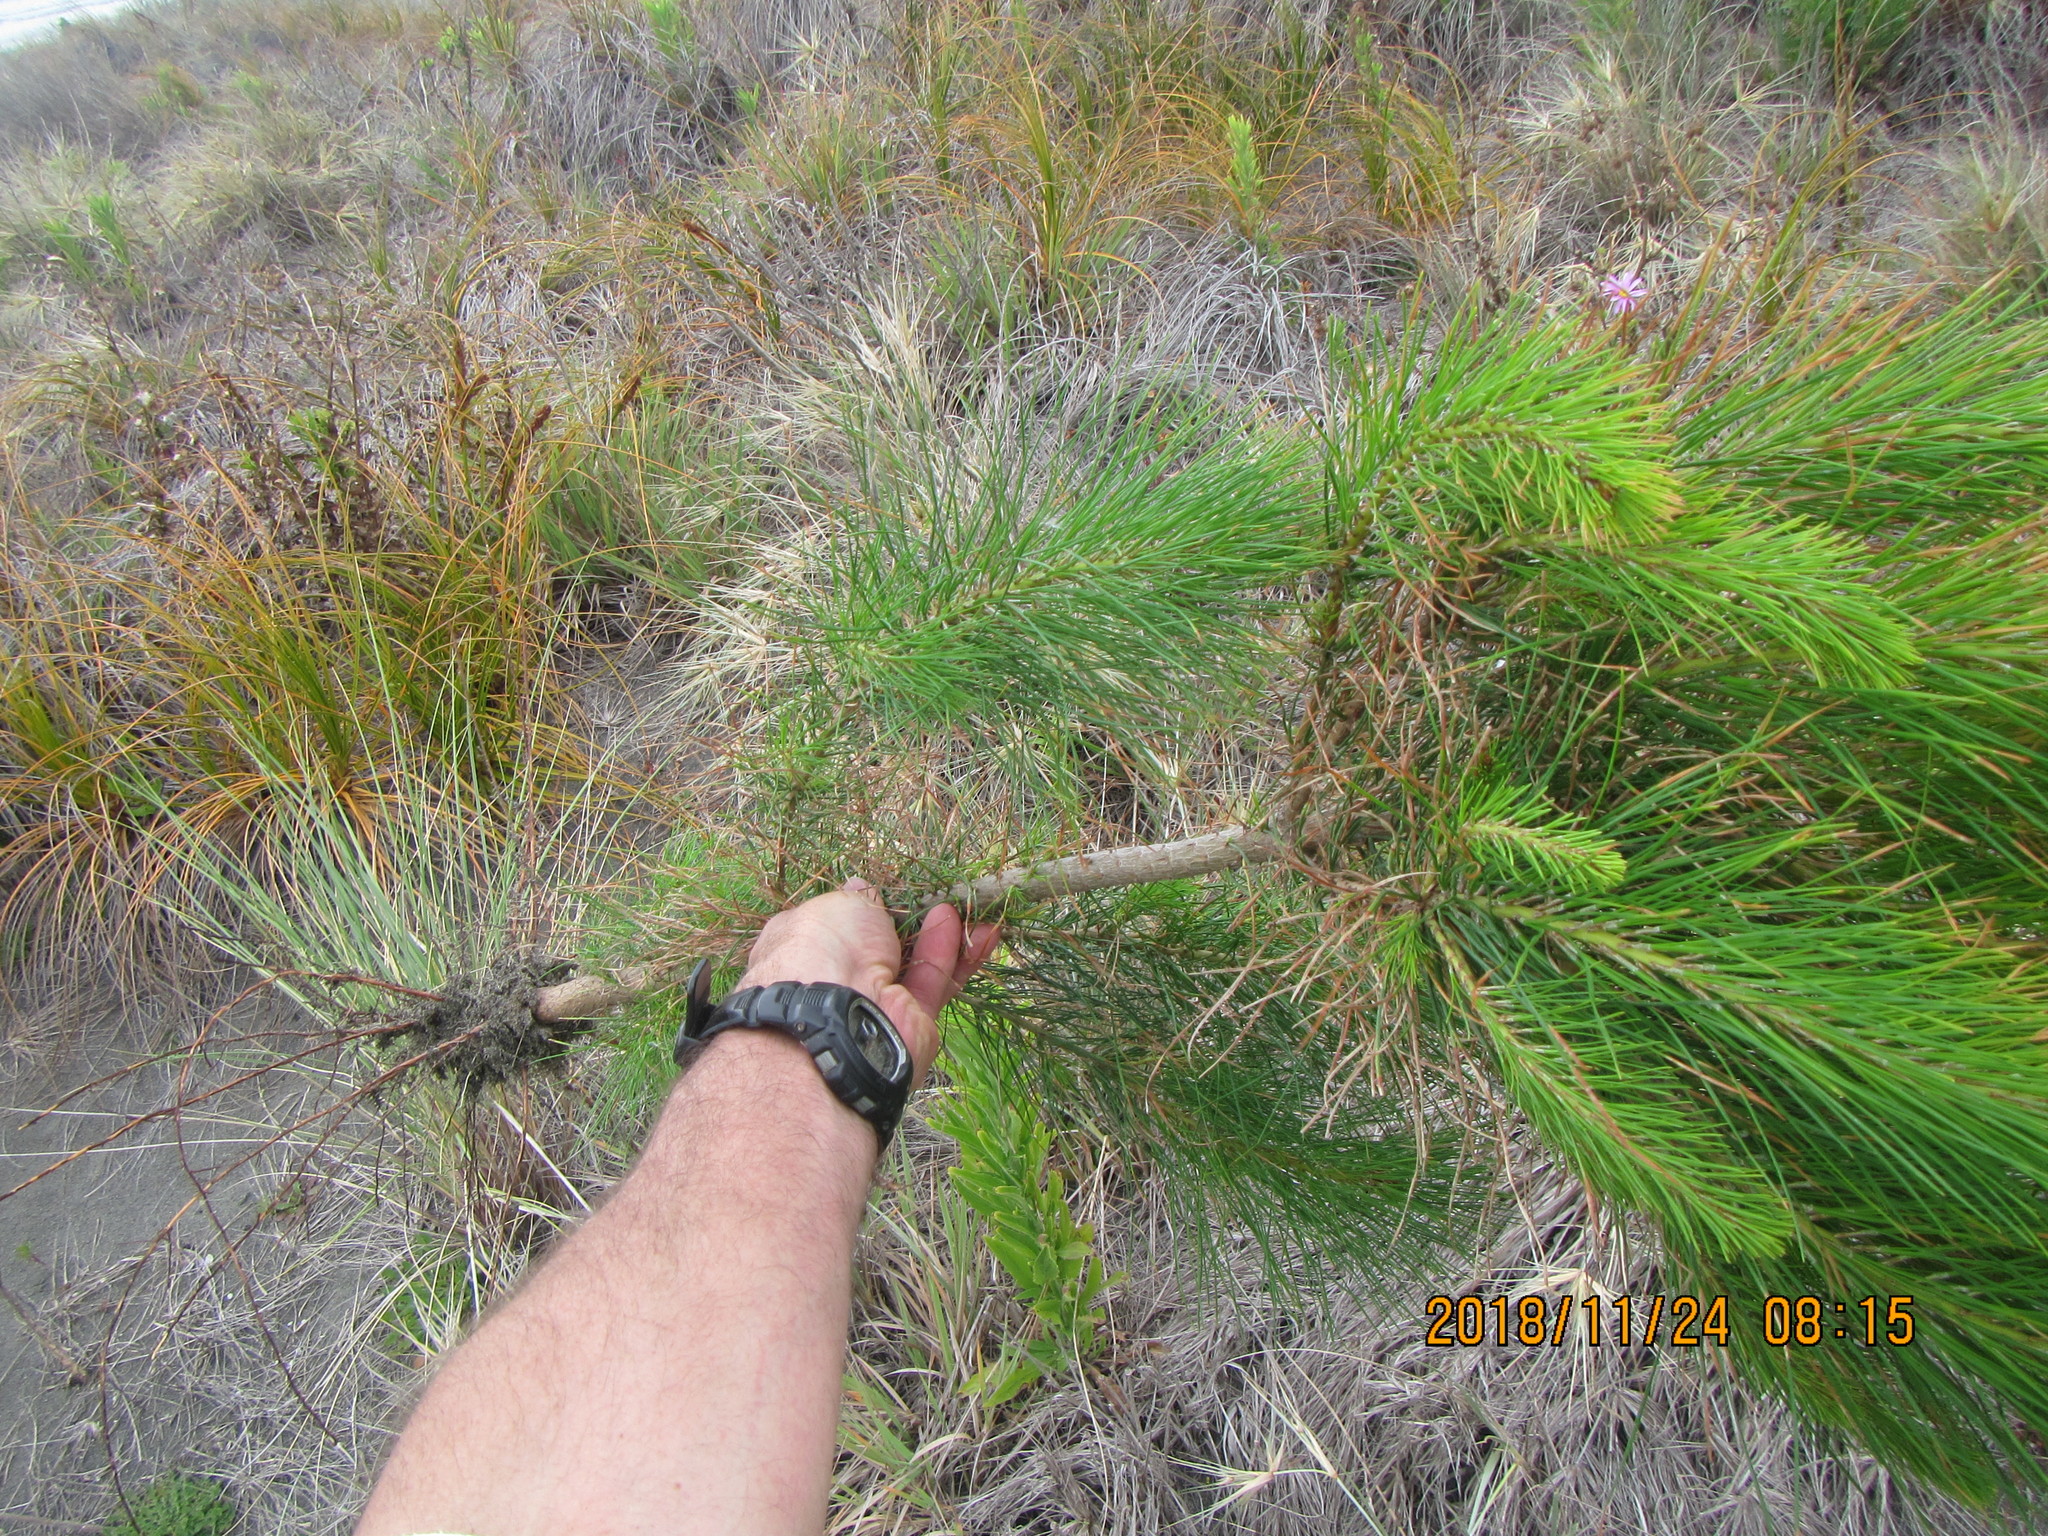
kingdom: Plantae
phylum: Tracheophyta
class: Pinopsida
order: Pinales
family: Pinaceae
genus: Pinus
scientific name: Pinus radiata
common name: Monterey pine
